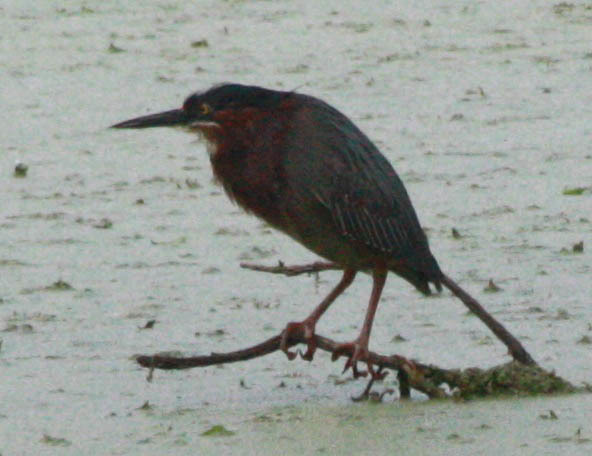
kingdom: Animalia
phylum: Chordata
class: Aves
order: Pelecaniformes
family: Ardeidae
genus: Butorides
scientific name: Butorides virescens
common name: Green heron
